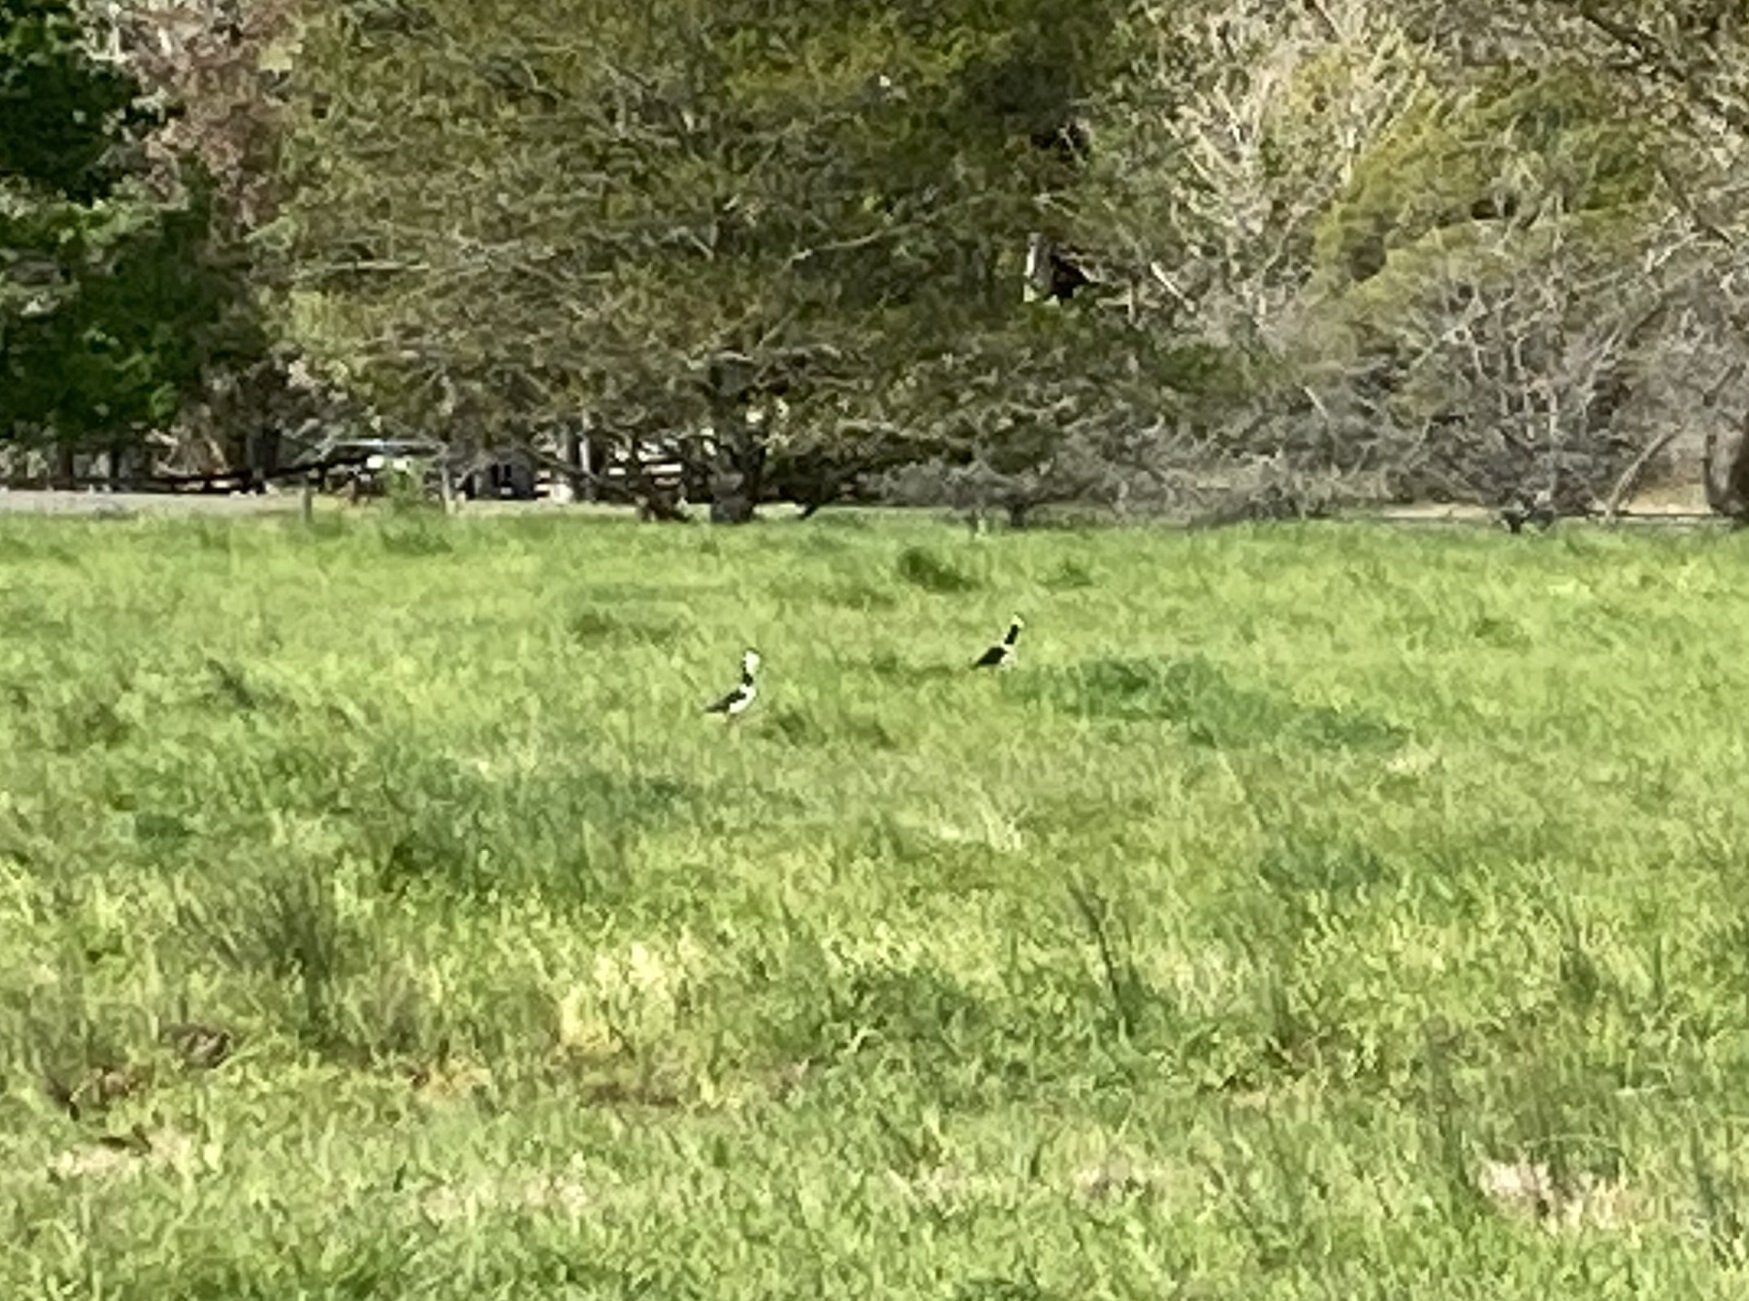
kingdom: Animalia
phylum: Chordata
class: Aves
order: Charadriiformes
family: Recurvirostridae
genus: Himantopus
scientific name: Himantopus leucocephalus
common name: White-headed stilt
